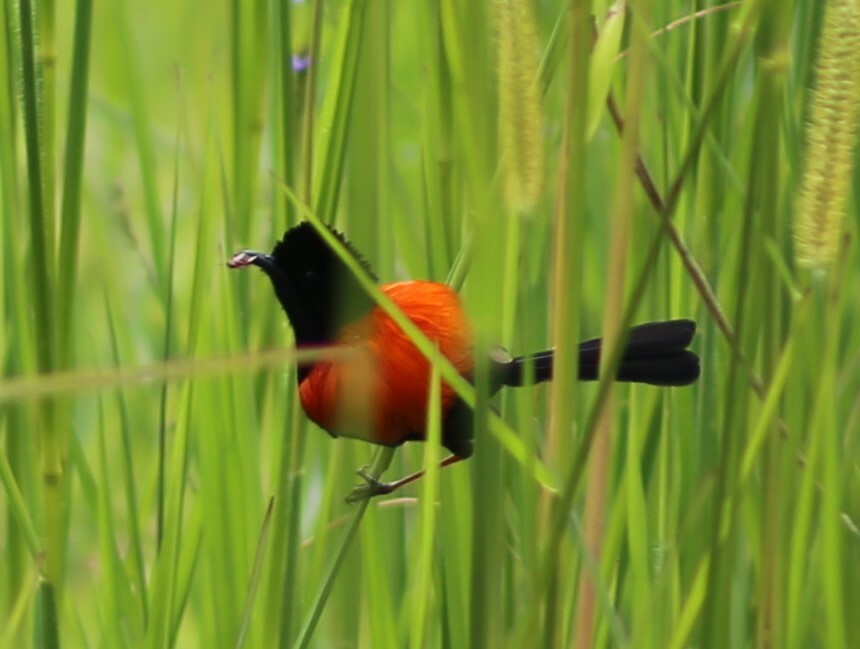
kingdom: Animalia
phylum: Chordata
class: Aves
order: Passeriformes
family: Maluridae
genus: Malurus
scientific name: Malurus melanocephalus
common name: Red-backed fairywren
